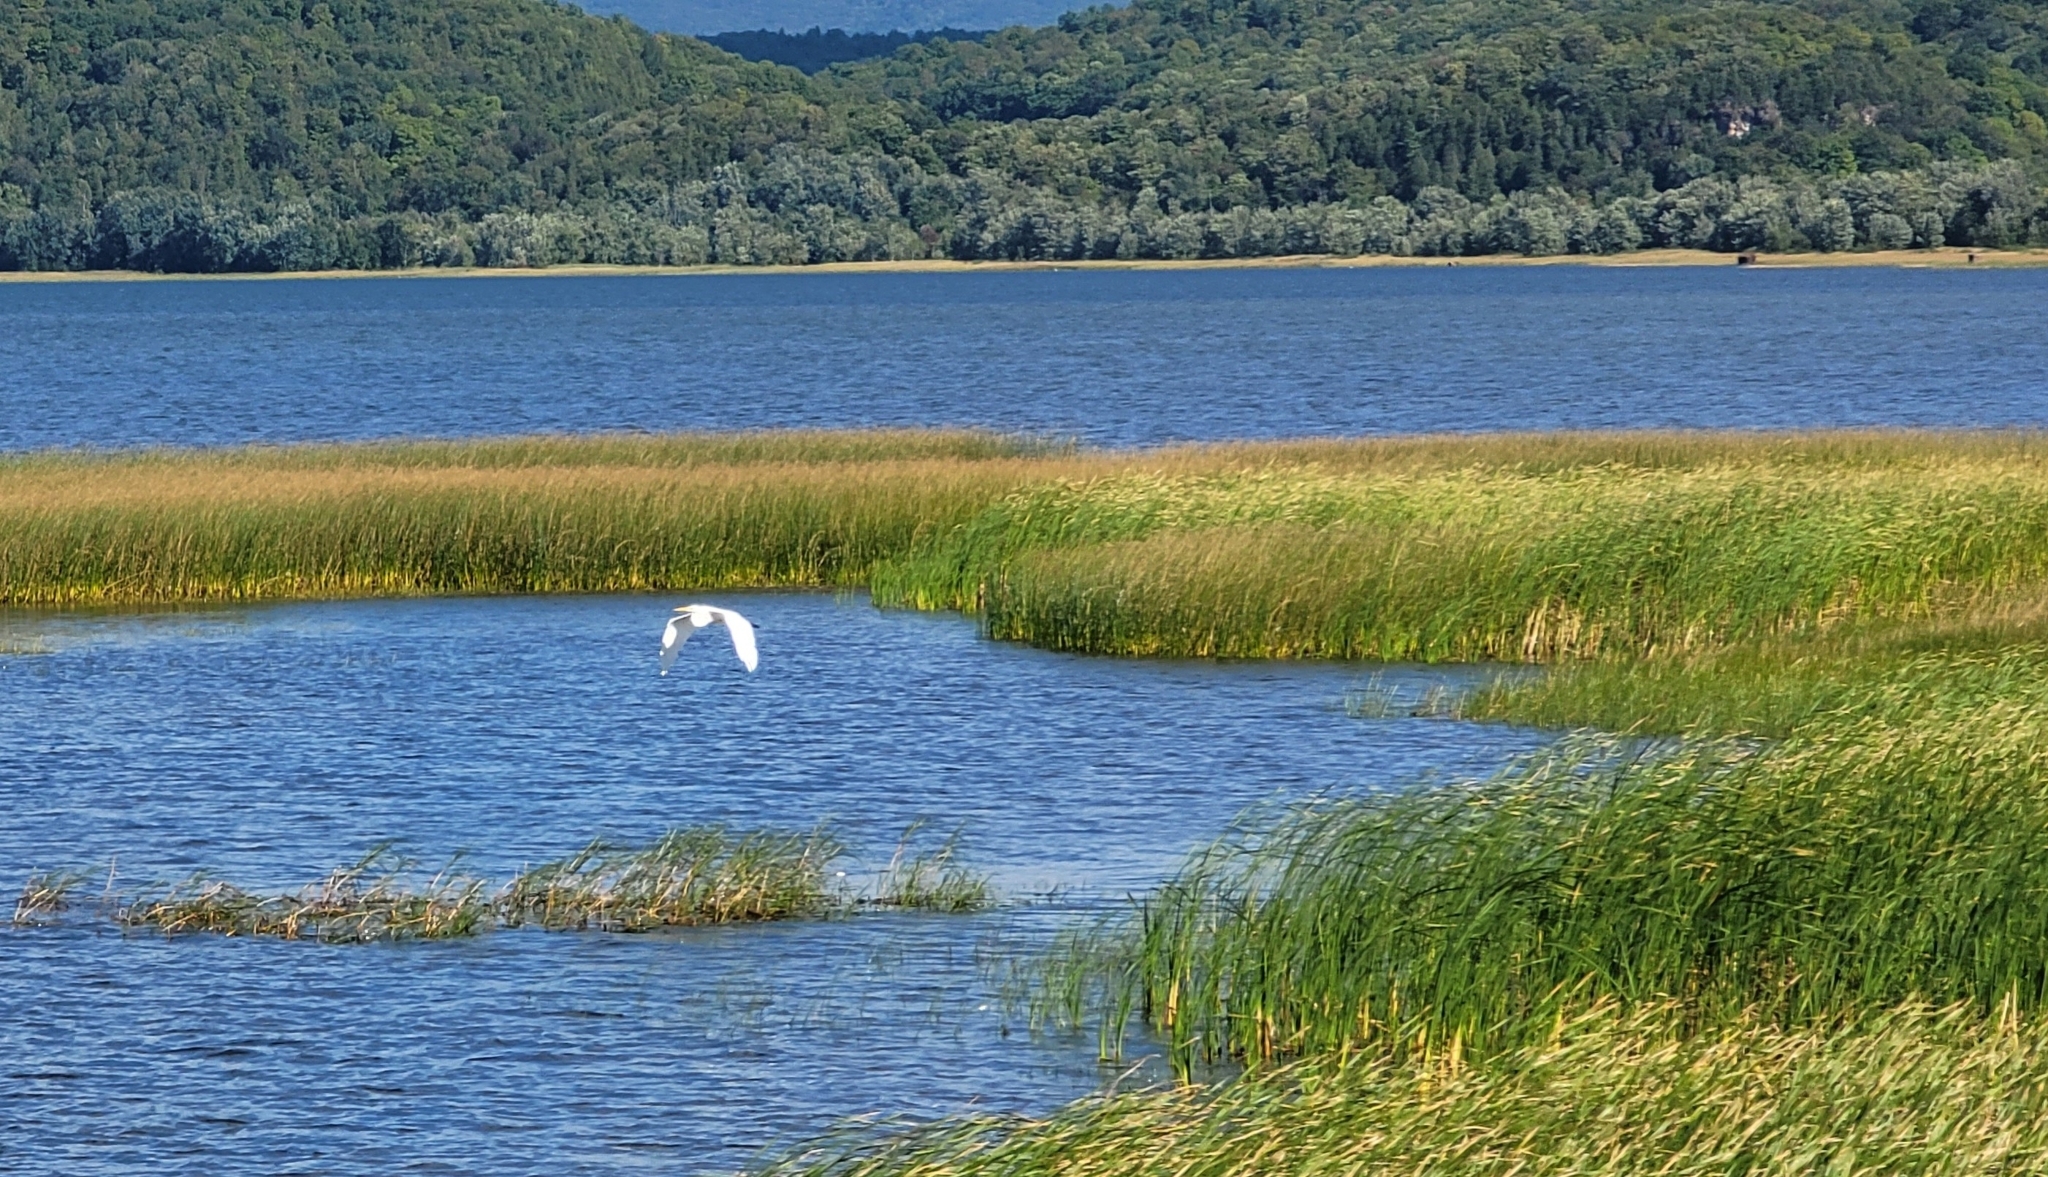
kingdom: Animalia
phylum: Chordata
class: Aves
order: Pelecaniformes
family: Ardeidae
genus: Ardea
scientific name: Ardea alba
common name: Great egret
